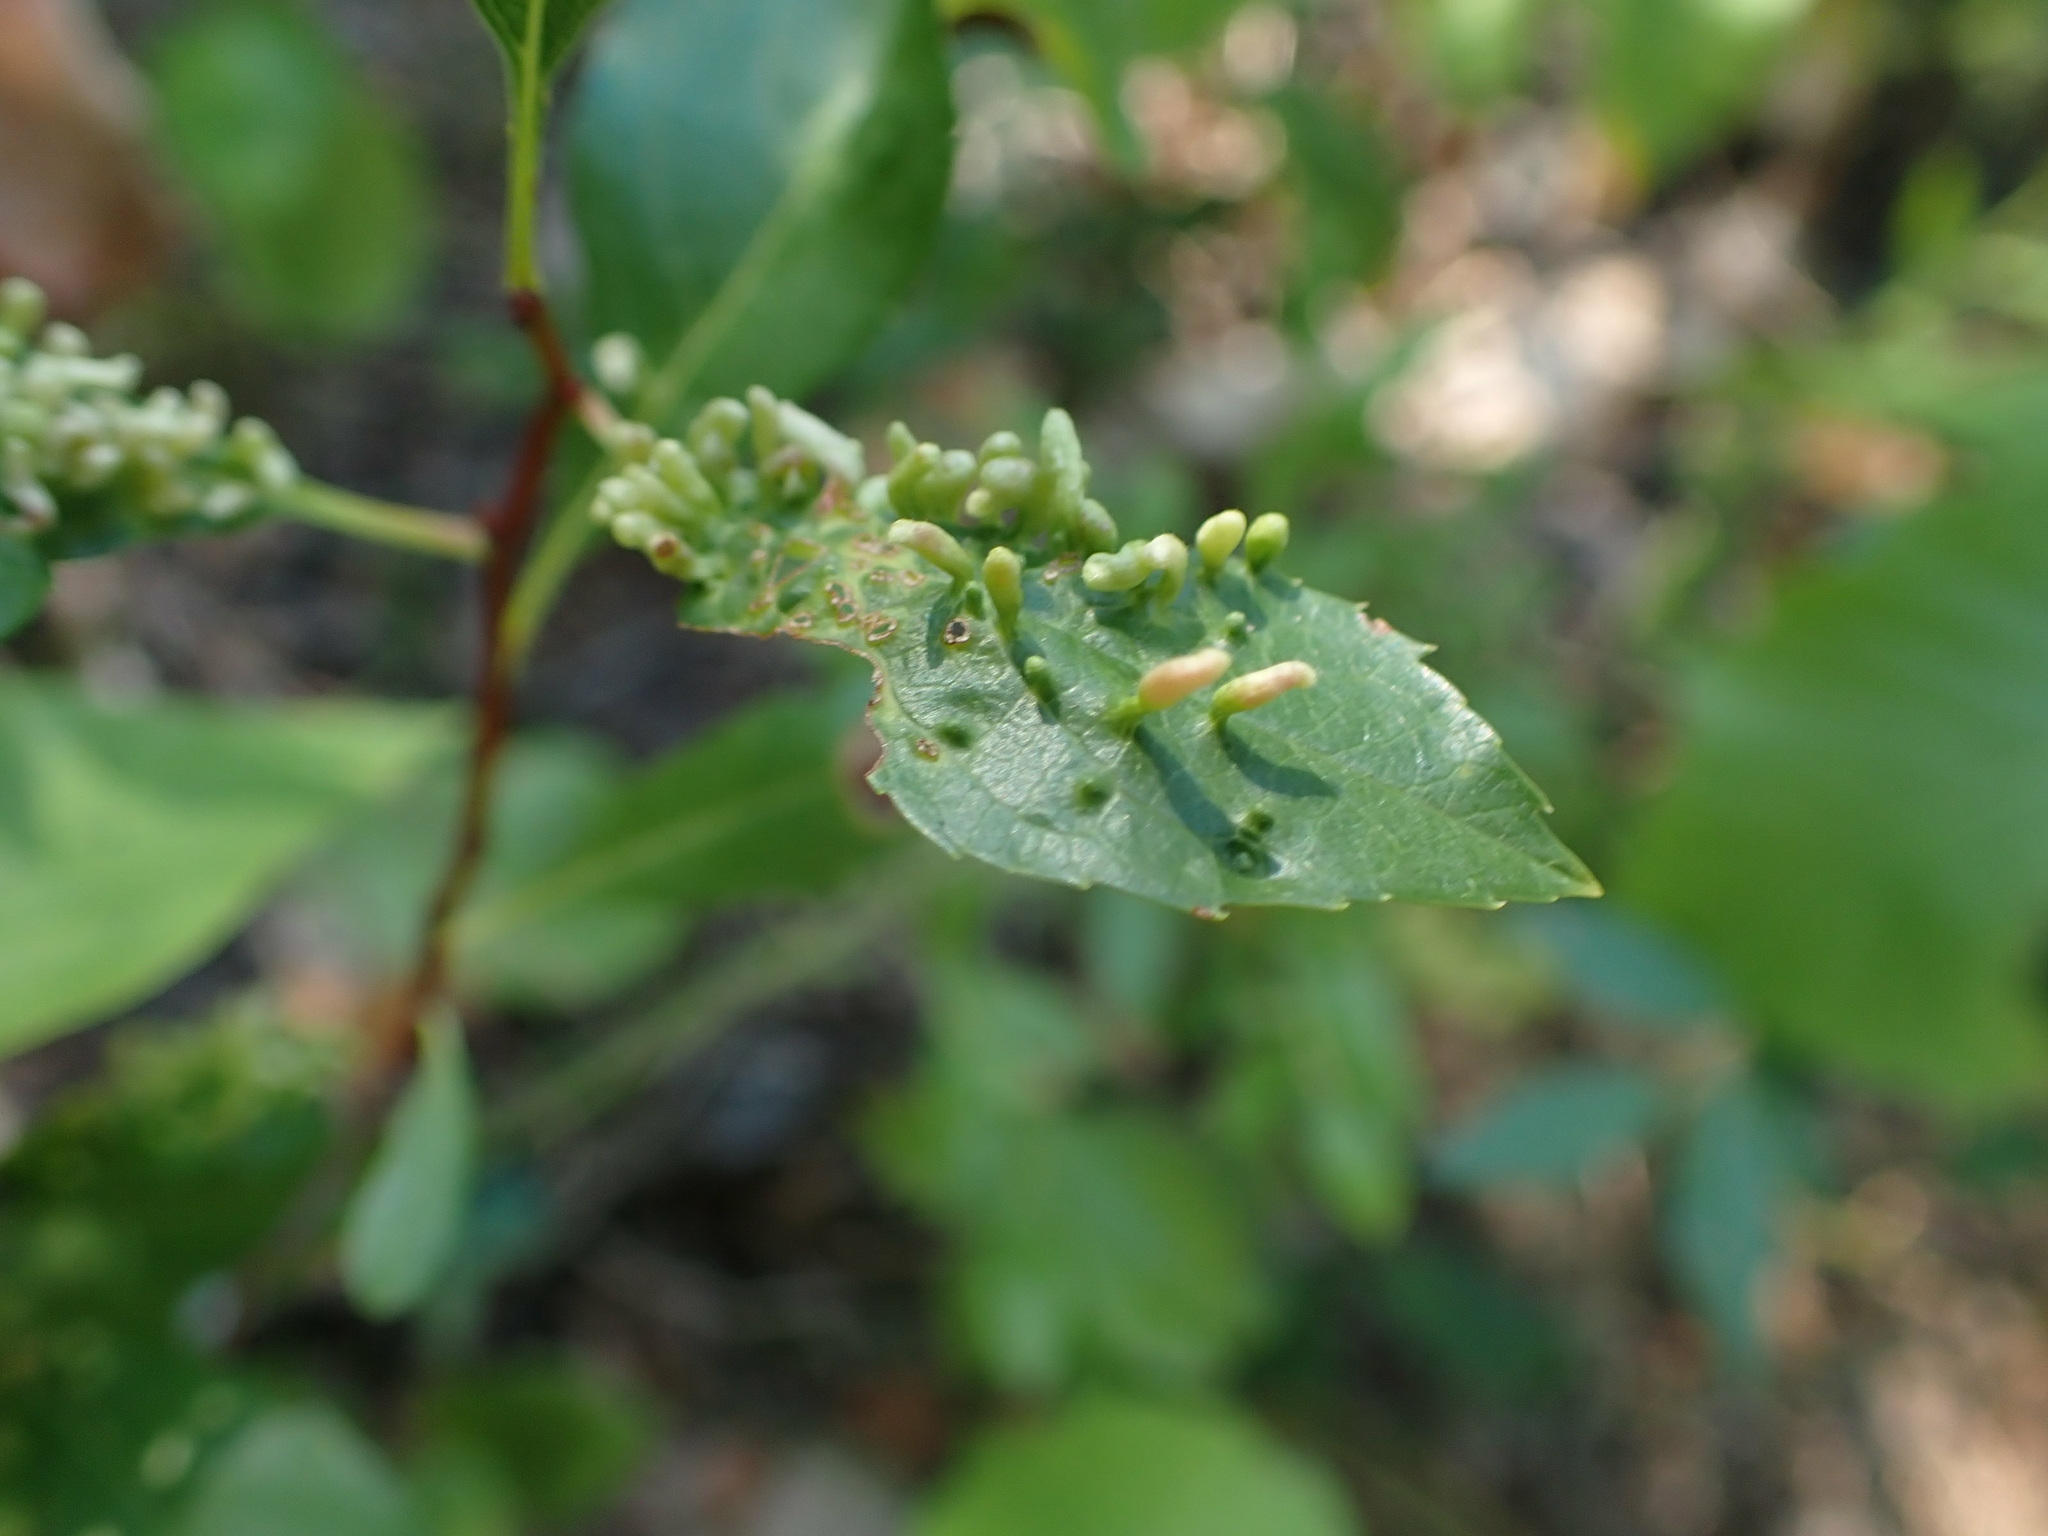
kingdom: Animalia
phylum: Arthropoda
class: Arachnida
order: Trombidiformes
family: Eriophyidae
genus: Eriophyes
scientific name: Eriophyes emarginatae
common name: Plum leaf gall mite
